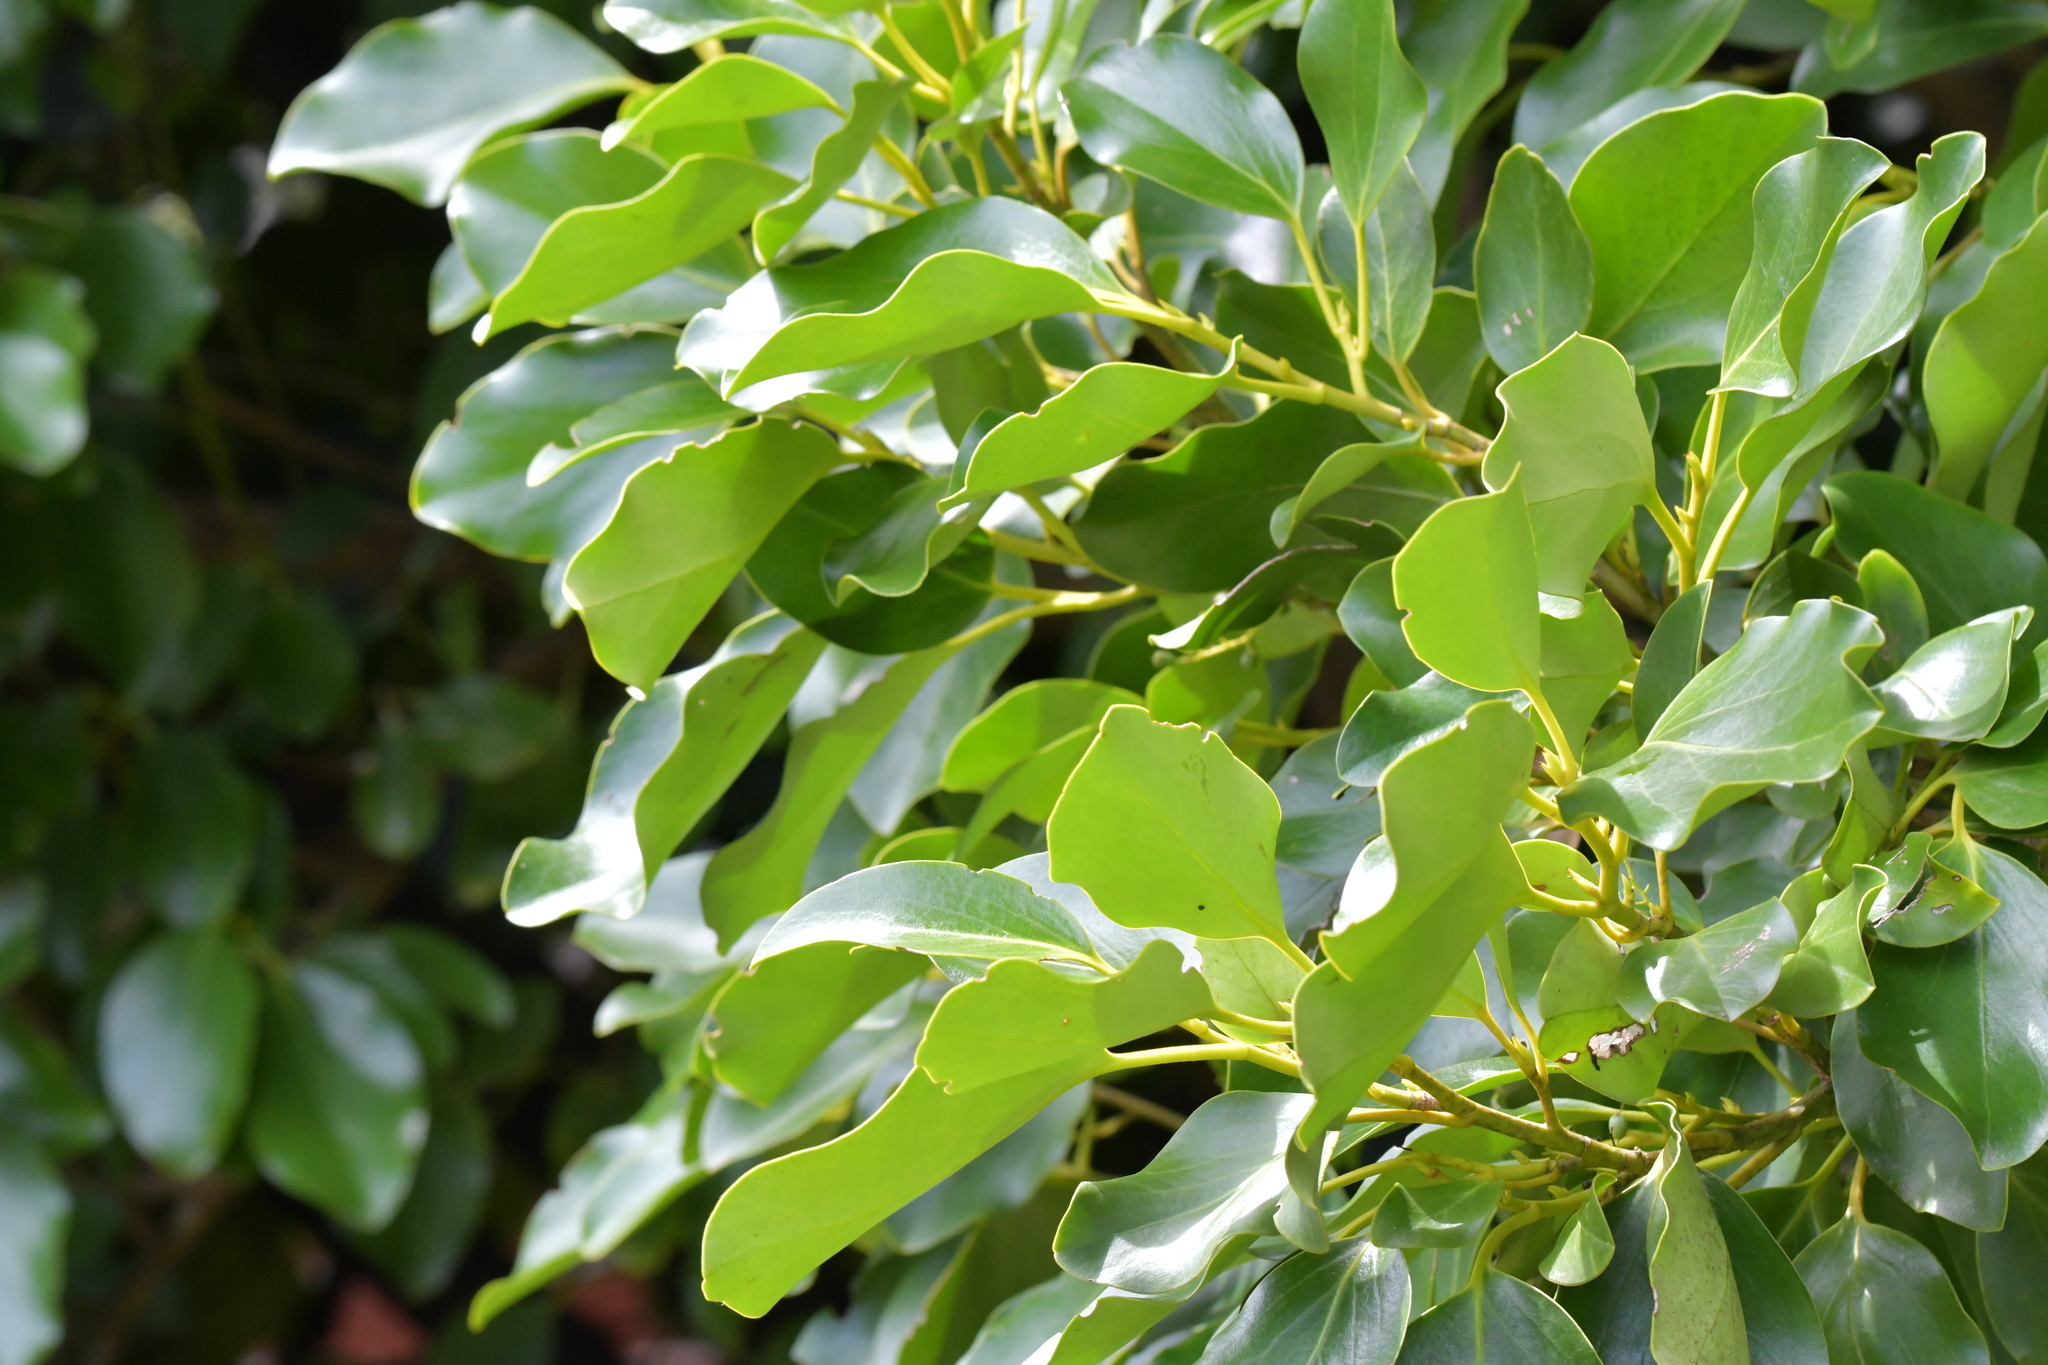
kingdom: Animalia
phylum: Arthropoda
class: Insecta
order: Coleoptera
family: Coccinellidae
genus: Serangium
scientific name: Serangium maculigerum
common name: Lady beetle
